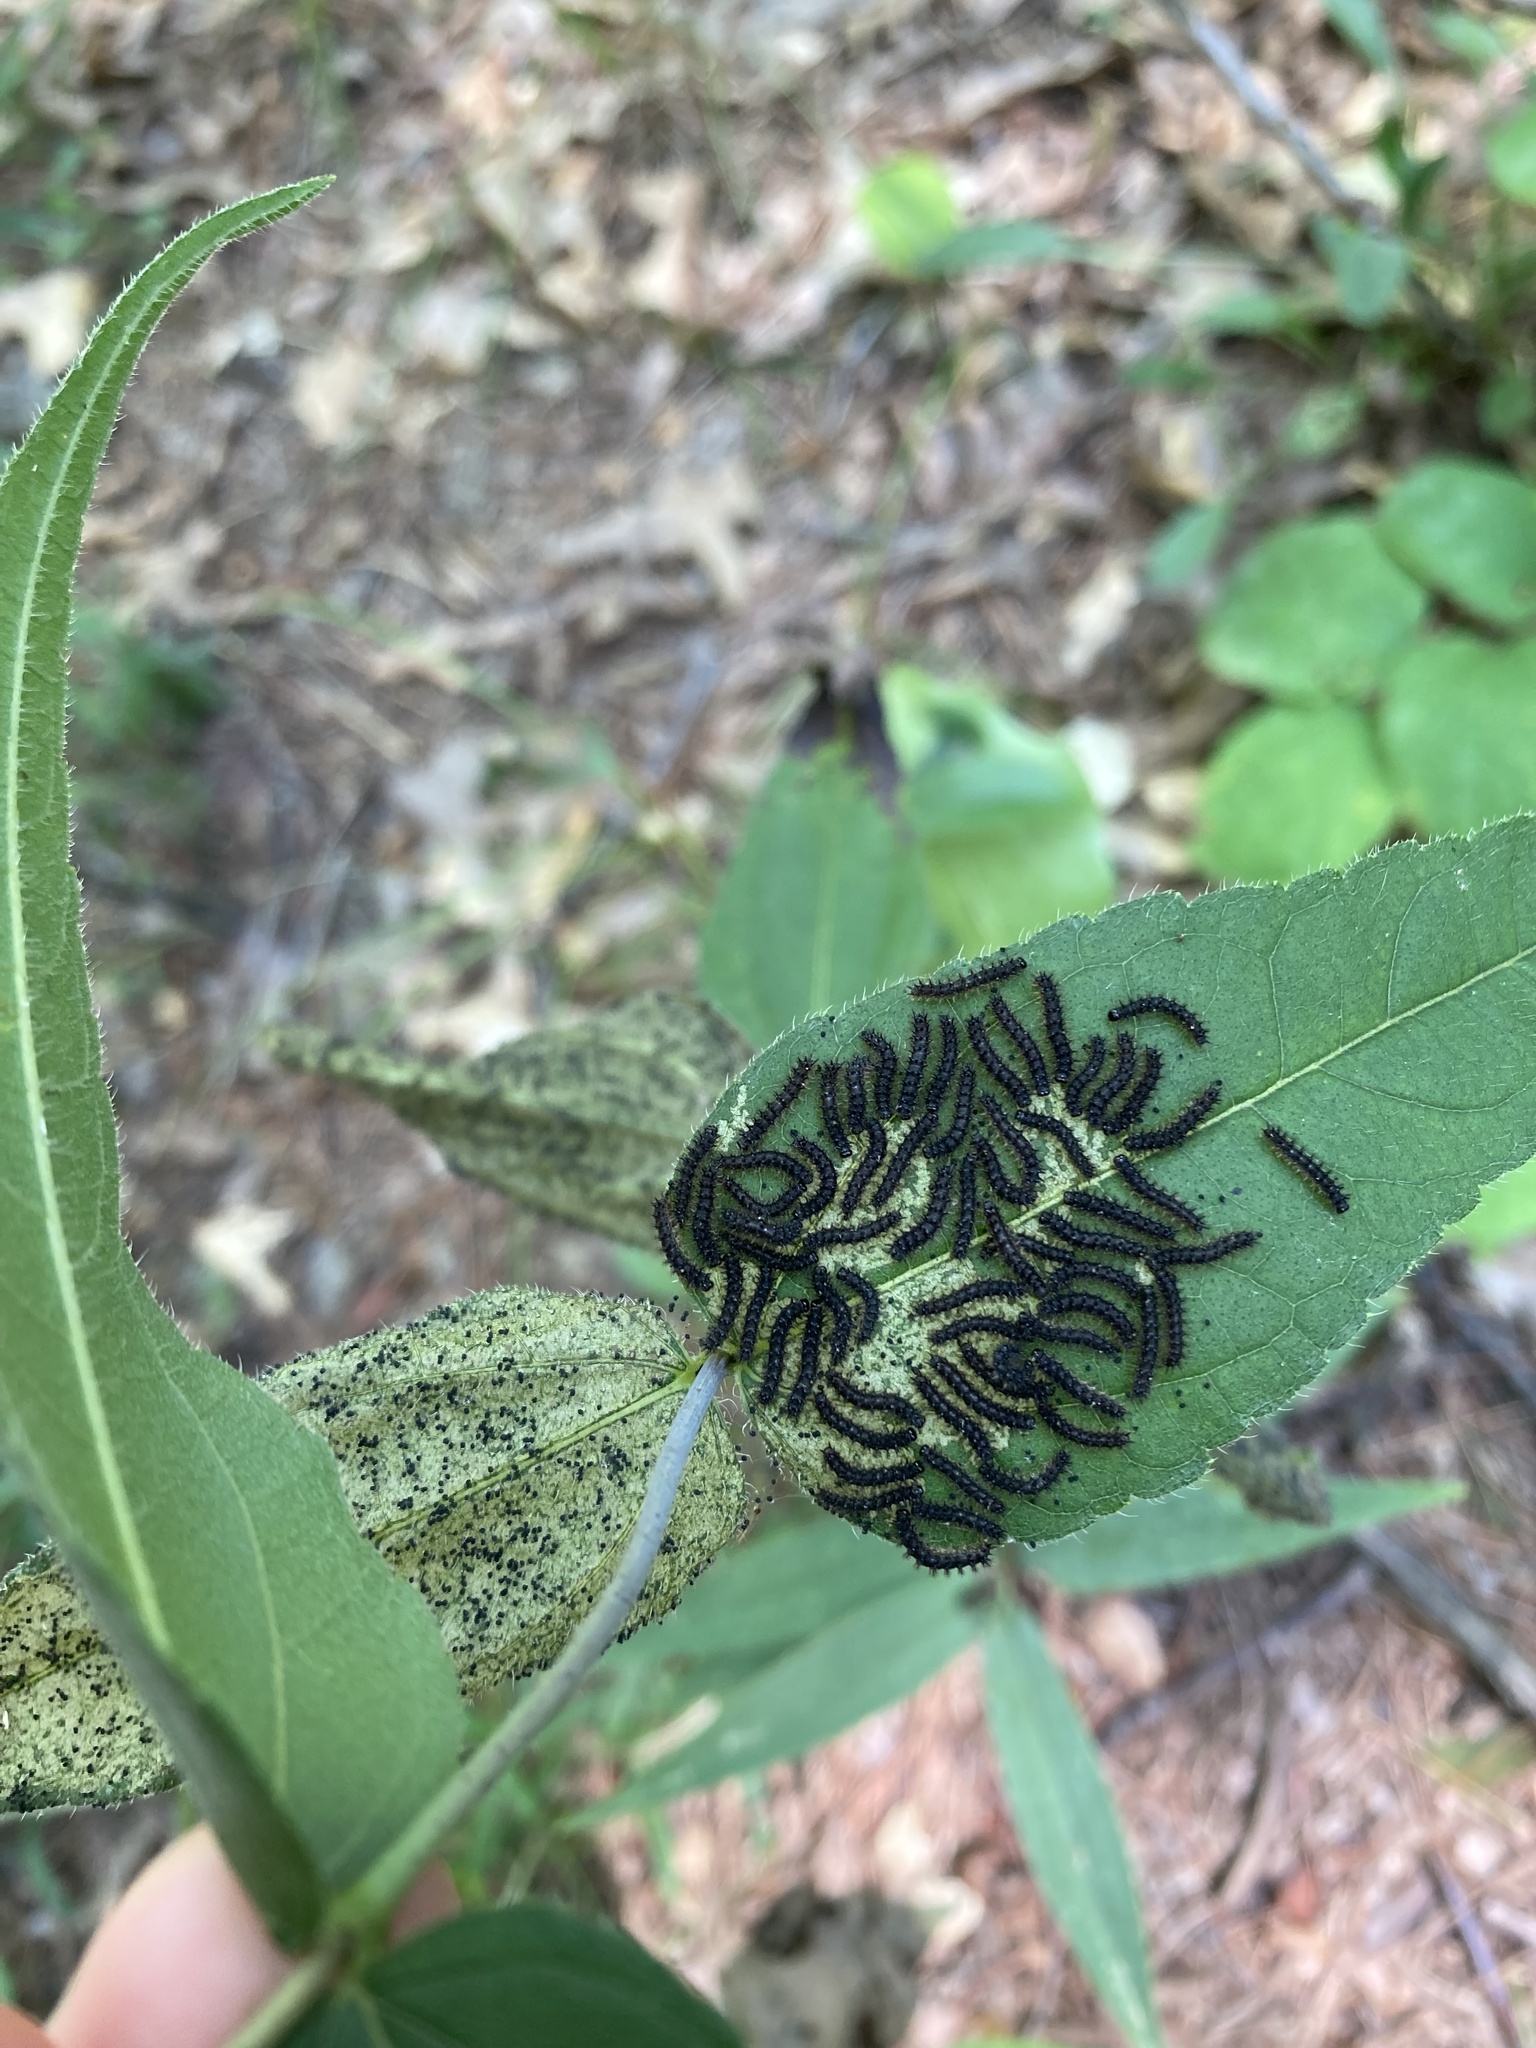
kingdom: Animalia
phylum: Arthropoda
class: Insecta
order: Lepidoptera
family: Nymphalidae
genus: Chlosyne
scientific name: Chlosyne nycteis
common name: Silvery checkerspot
